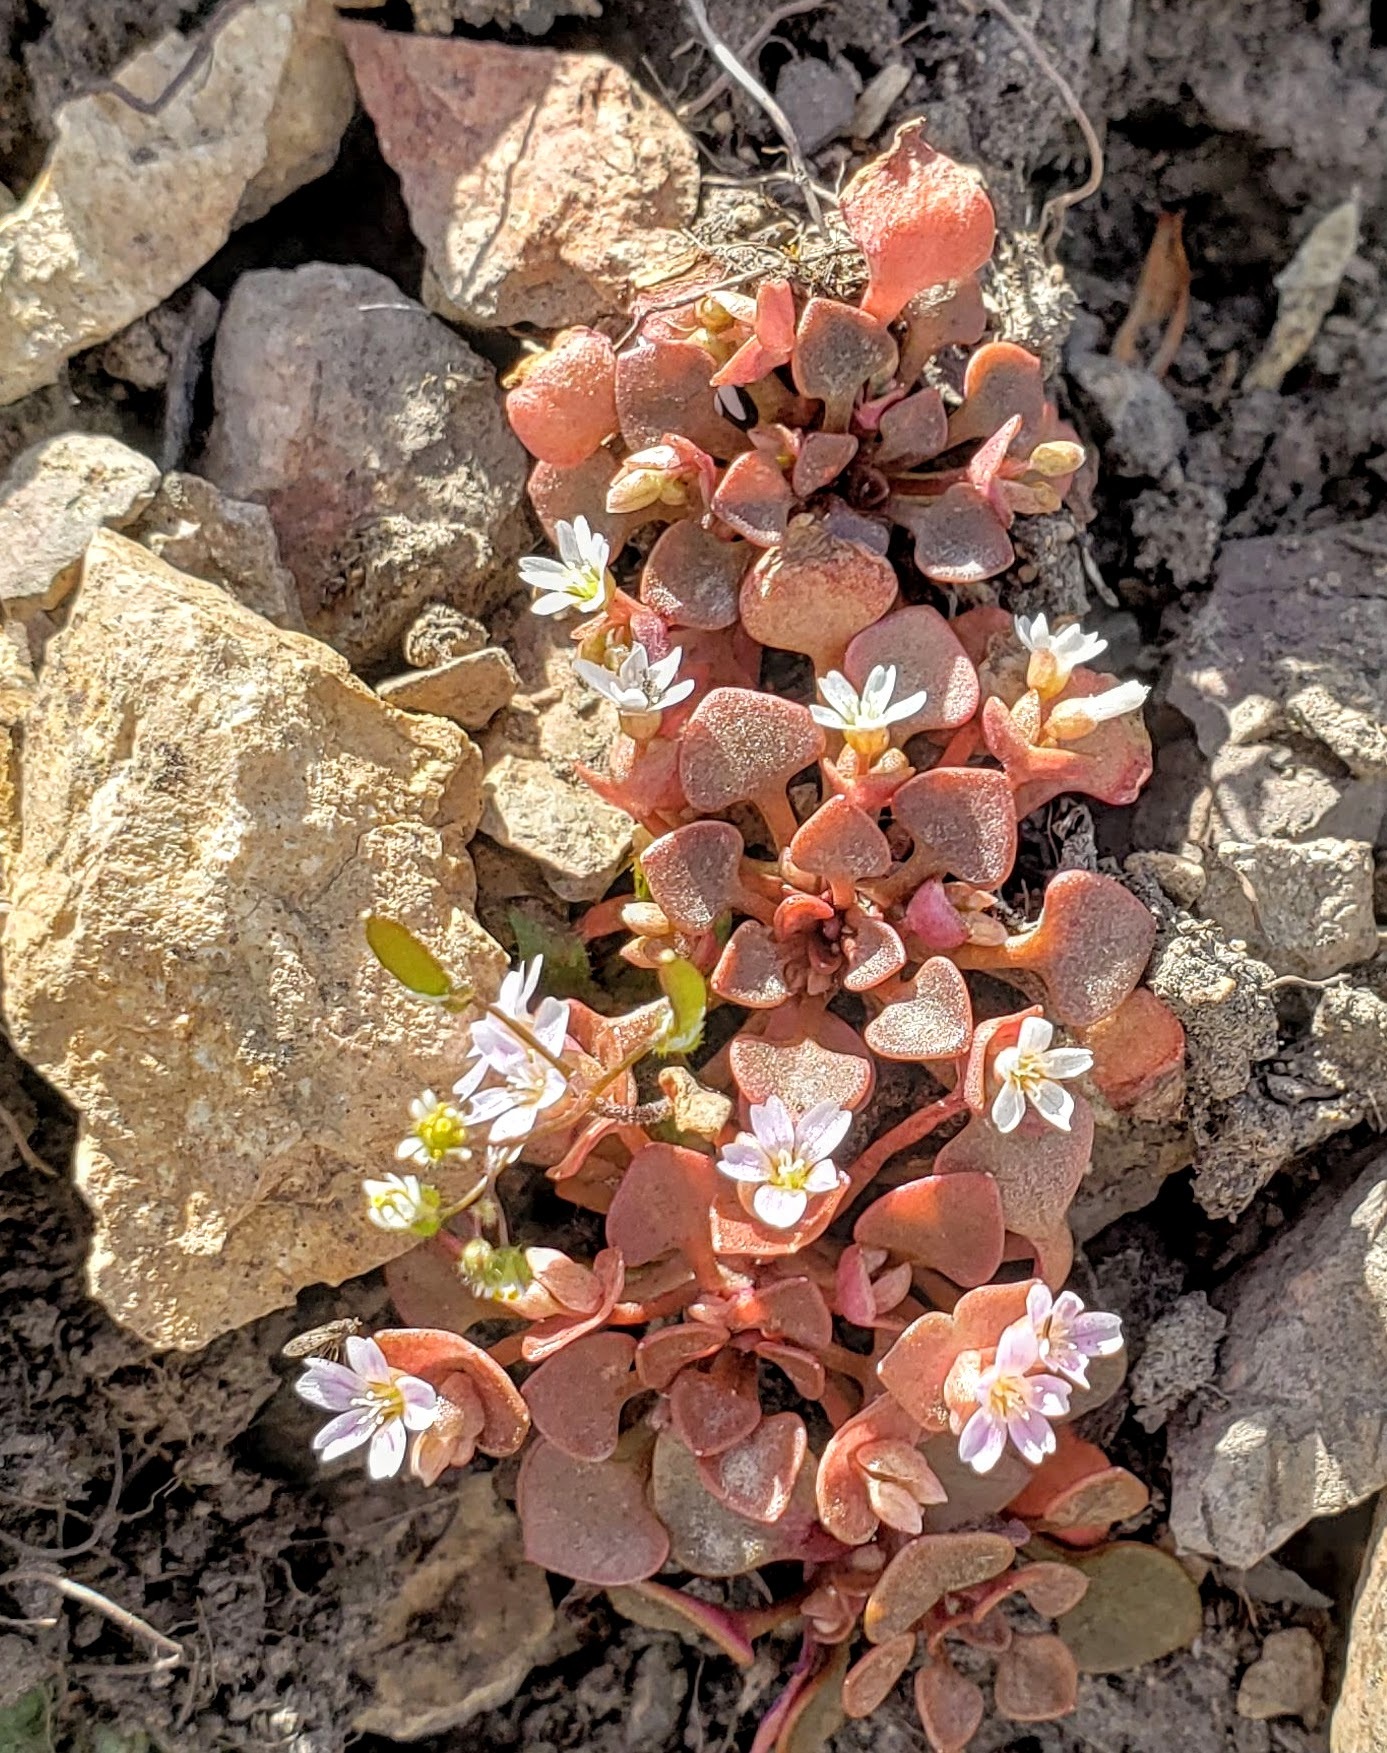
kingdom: Plantae
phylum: Tracheophyta
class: Magnoliopsida
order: Caryophyllales
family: Montiaceae
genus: Claytonia
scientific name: Claytonia rubra
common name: Erubescent miner's-lettuce
